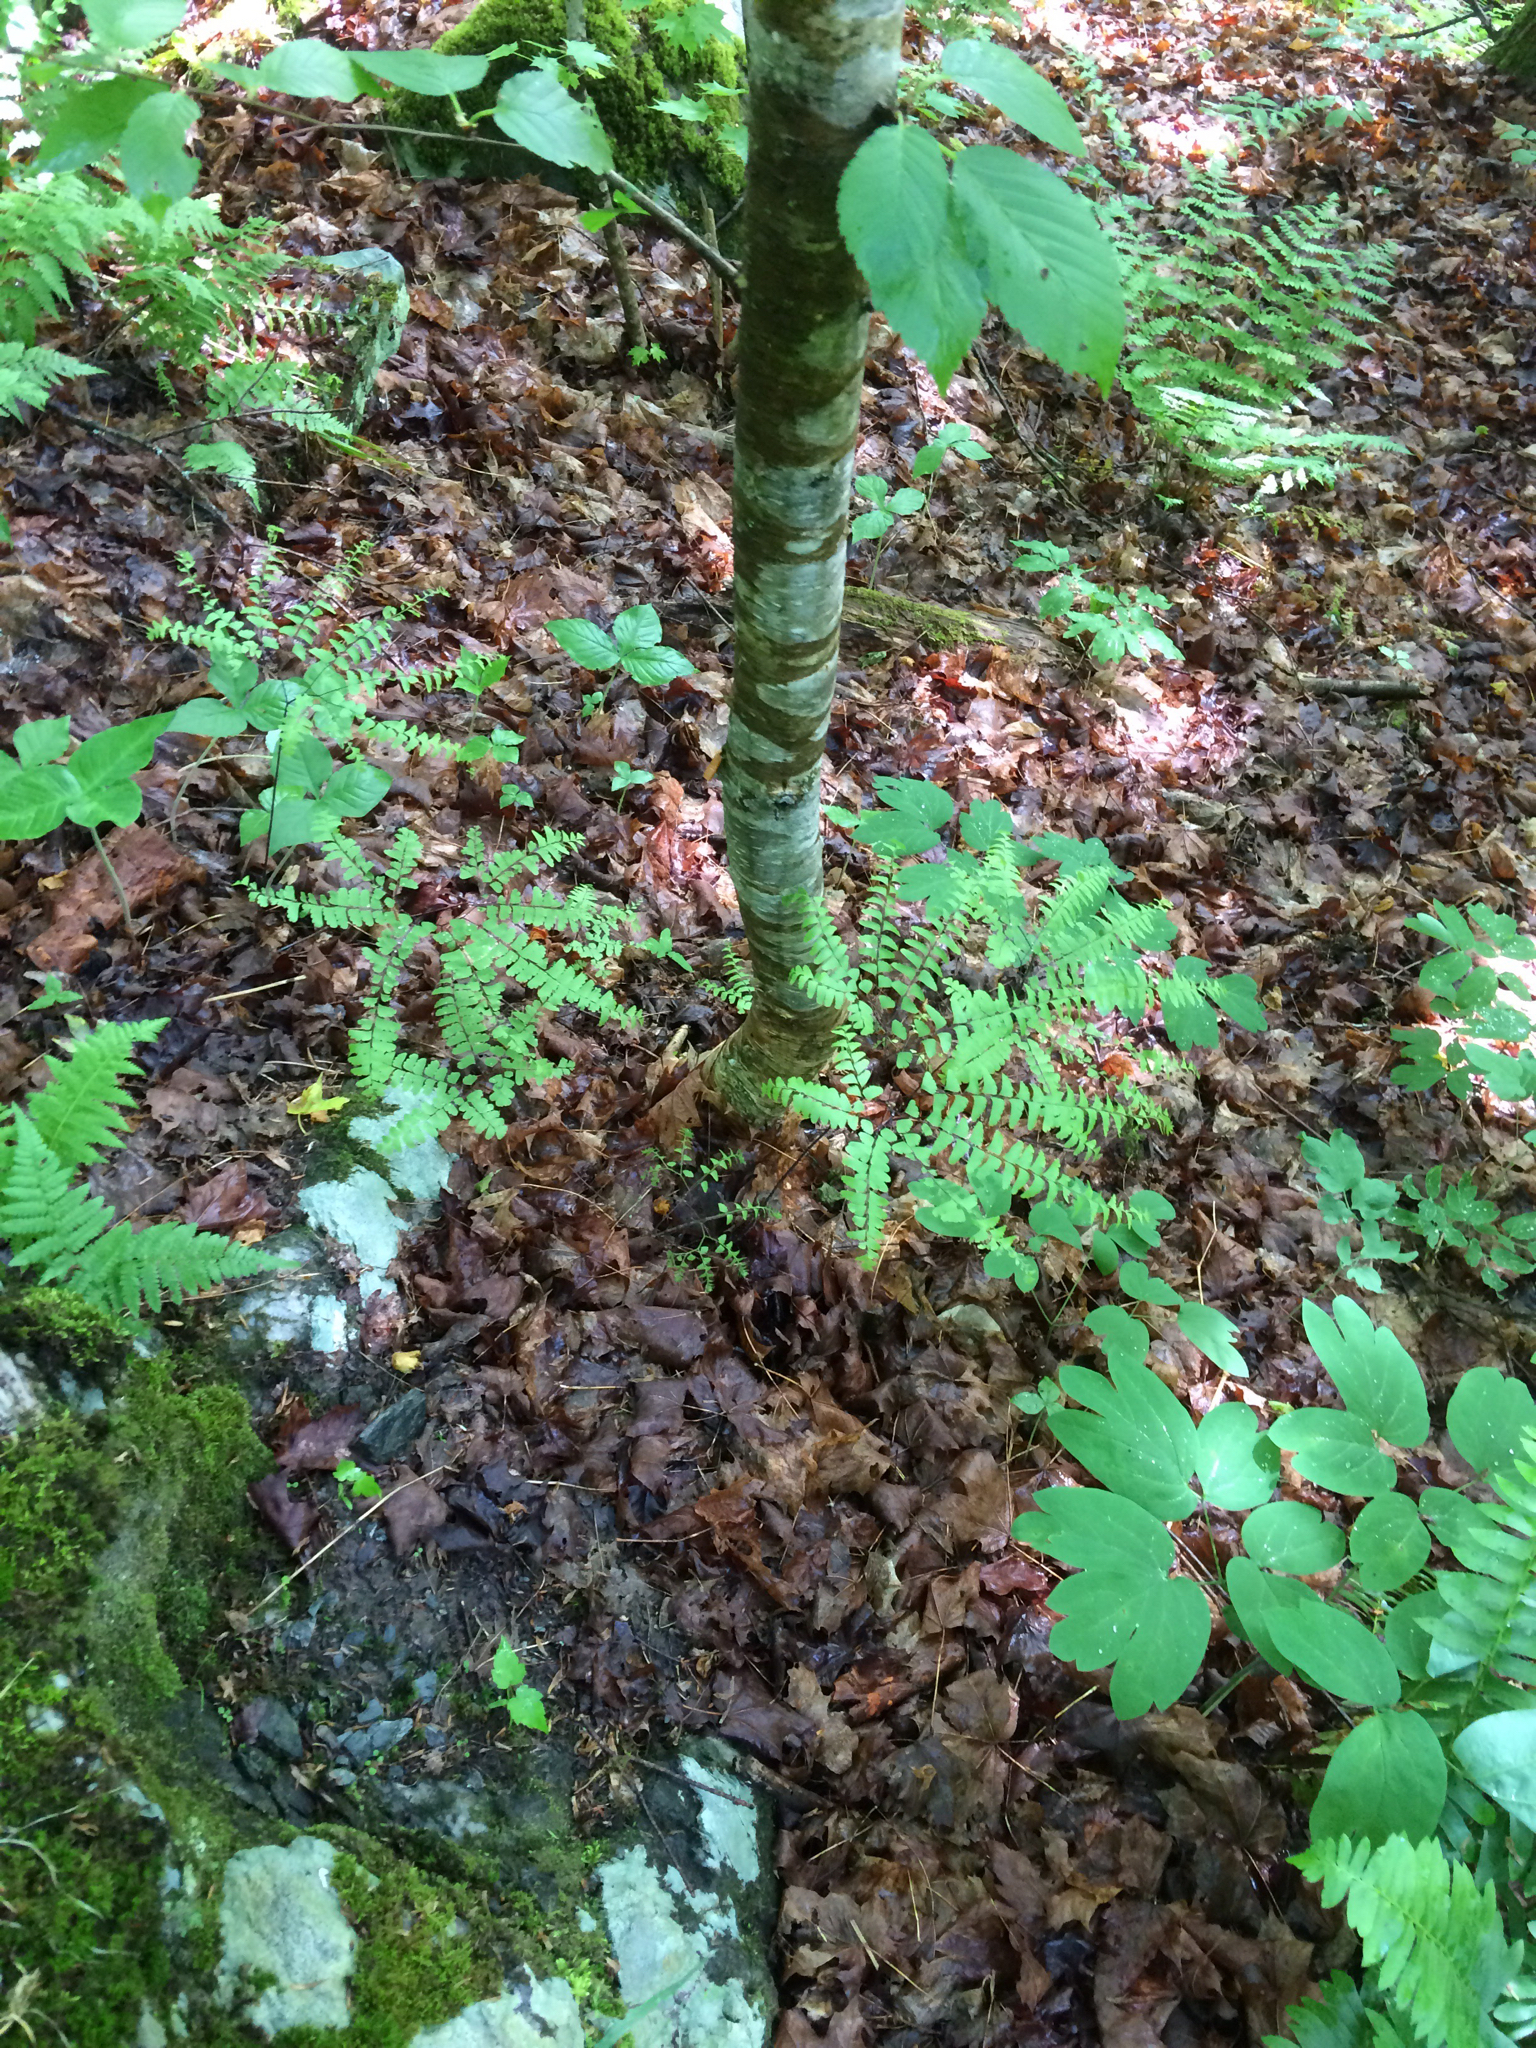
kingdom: Plantae
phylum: Tracheophyta
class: Polypodiopsida
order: Polypodiales
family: Pteridaceae
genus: Adiantum
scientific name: Adiantum pedatum
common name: Five-finger fern
